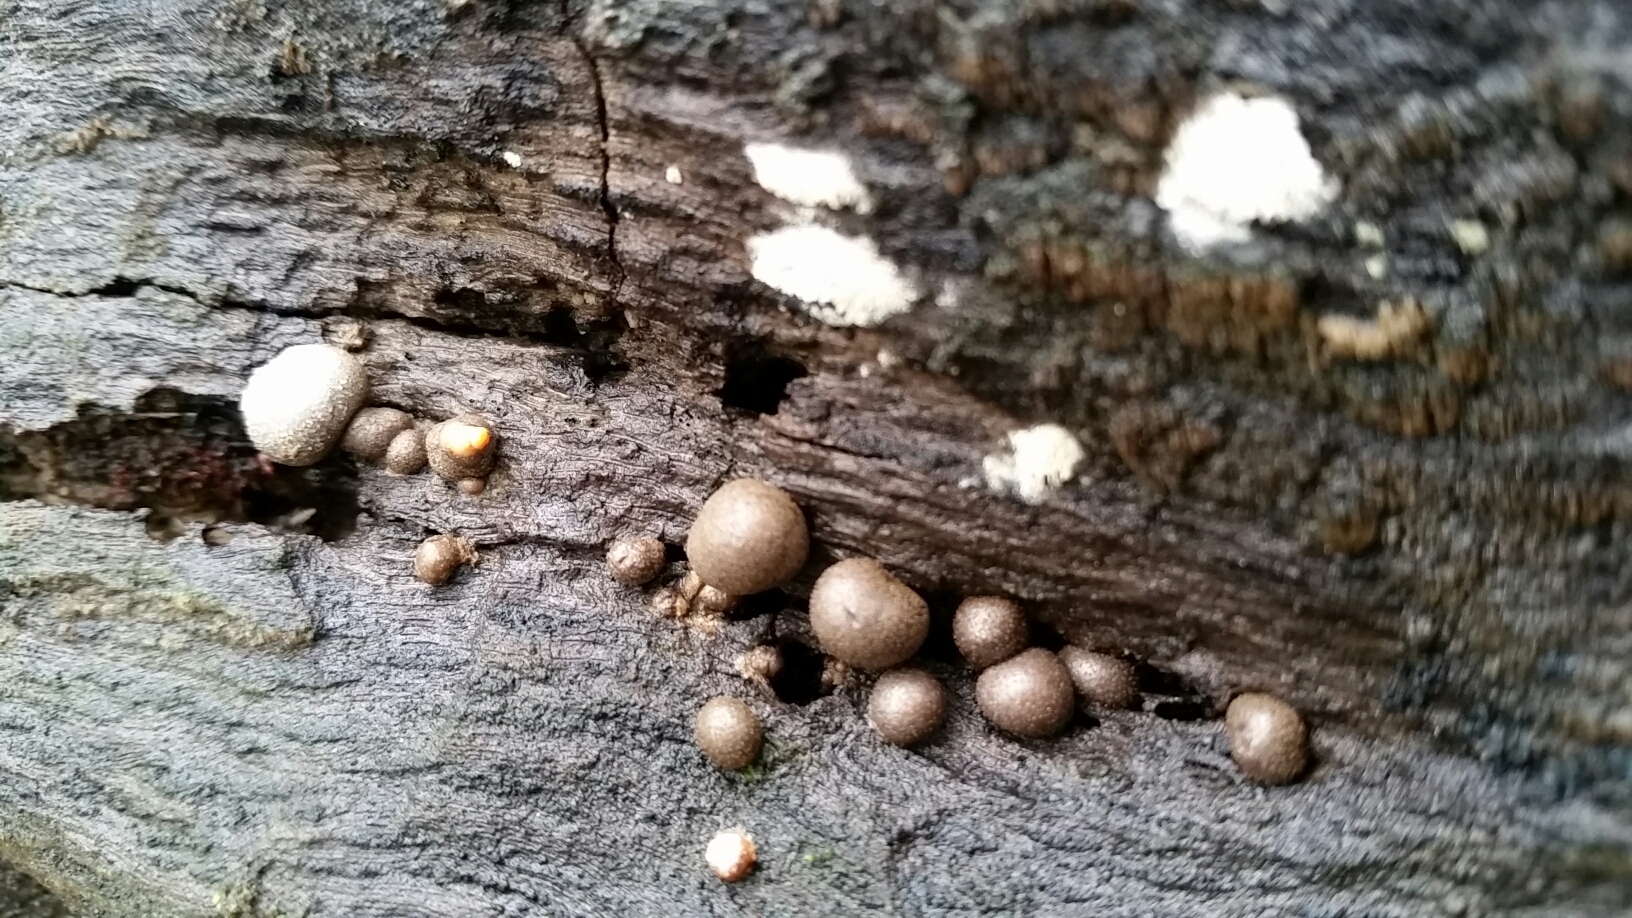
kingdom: Protozoa
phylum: Mycetozoa
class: Myxomycetes
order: Cribrariales
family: Tubiferaceae
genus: Lycogala
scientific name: Lycogala epidendrum
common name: Wolf's milk
